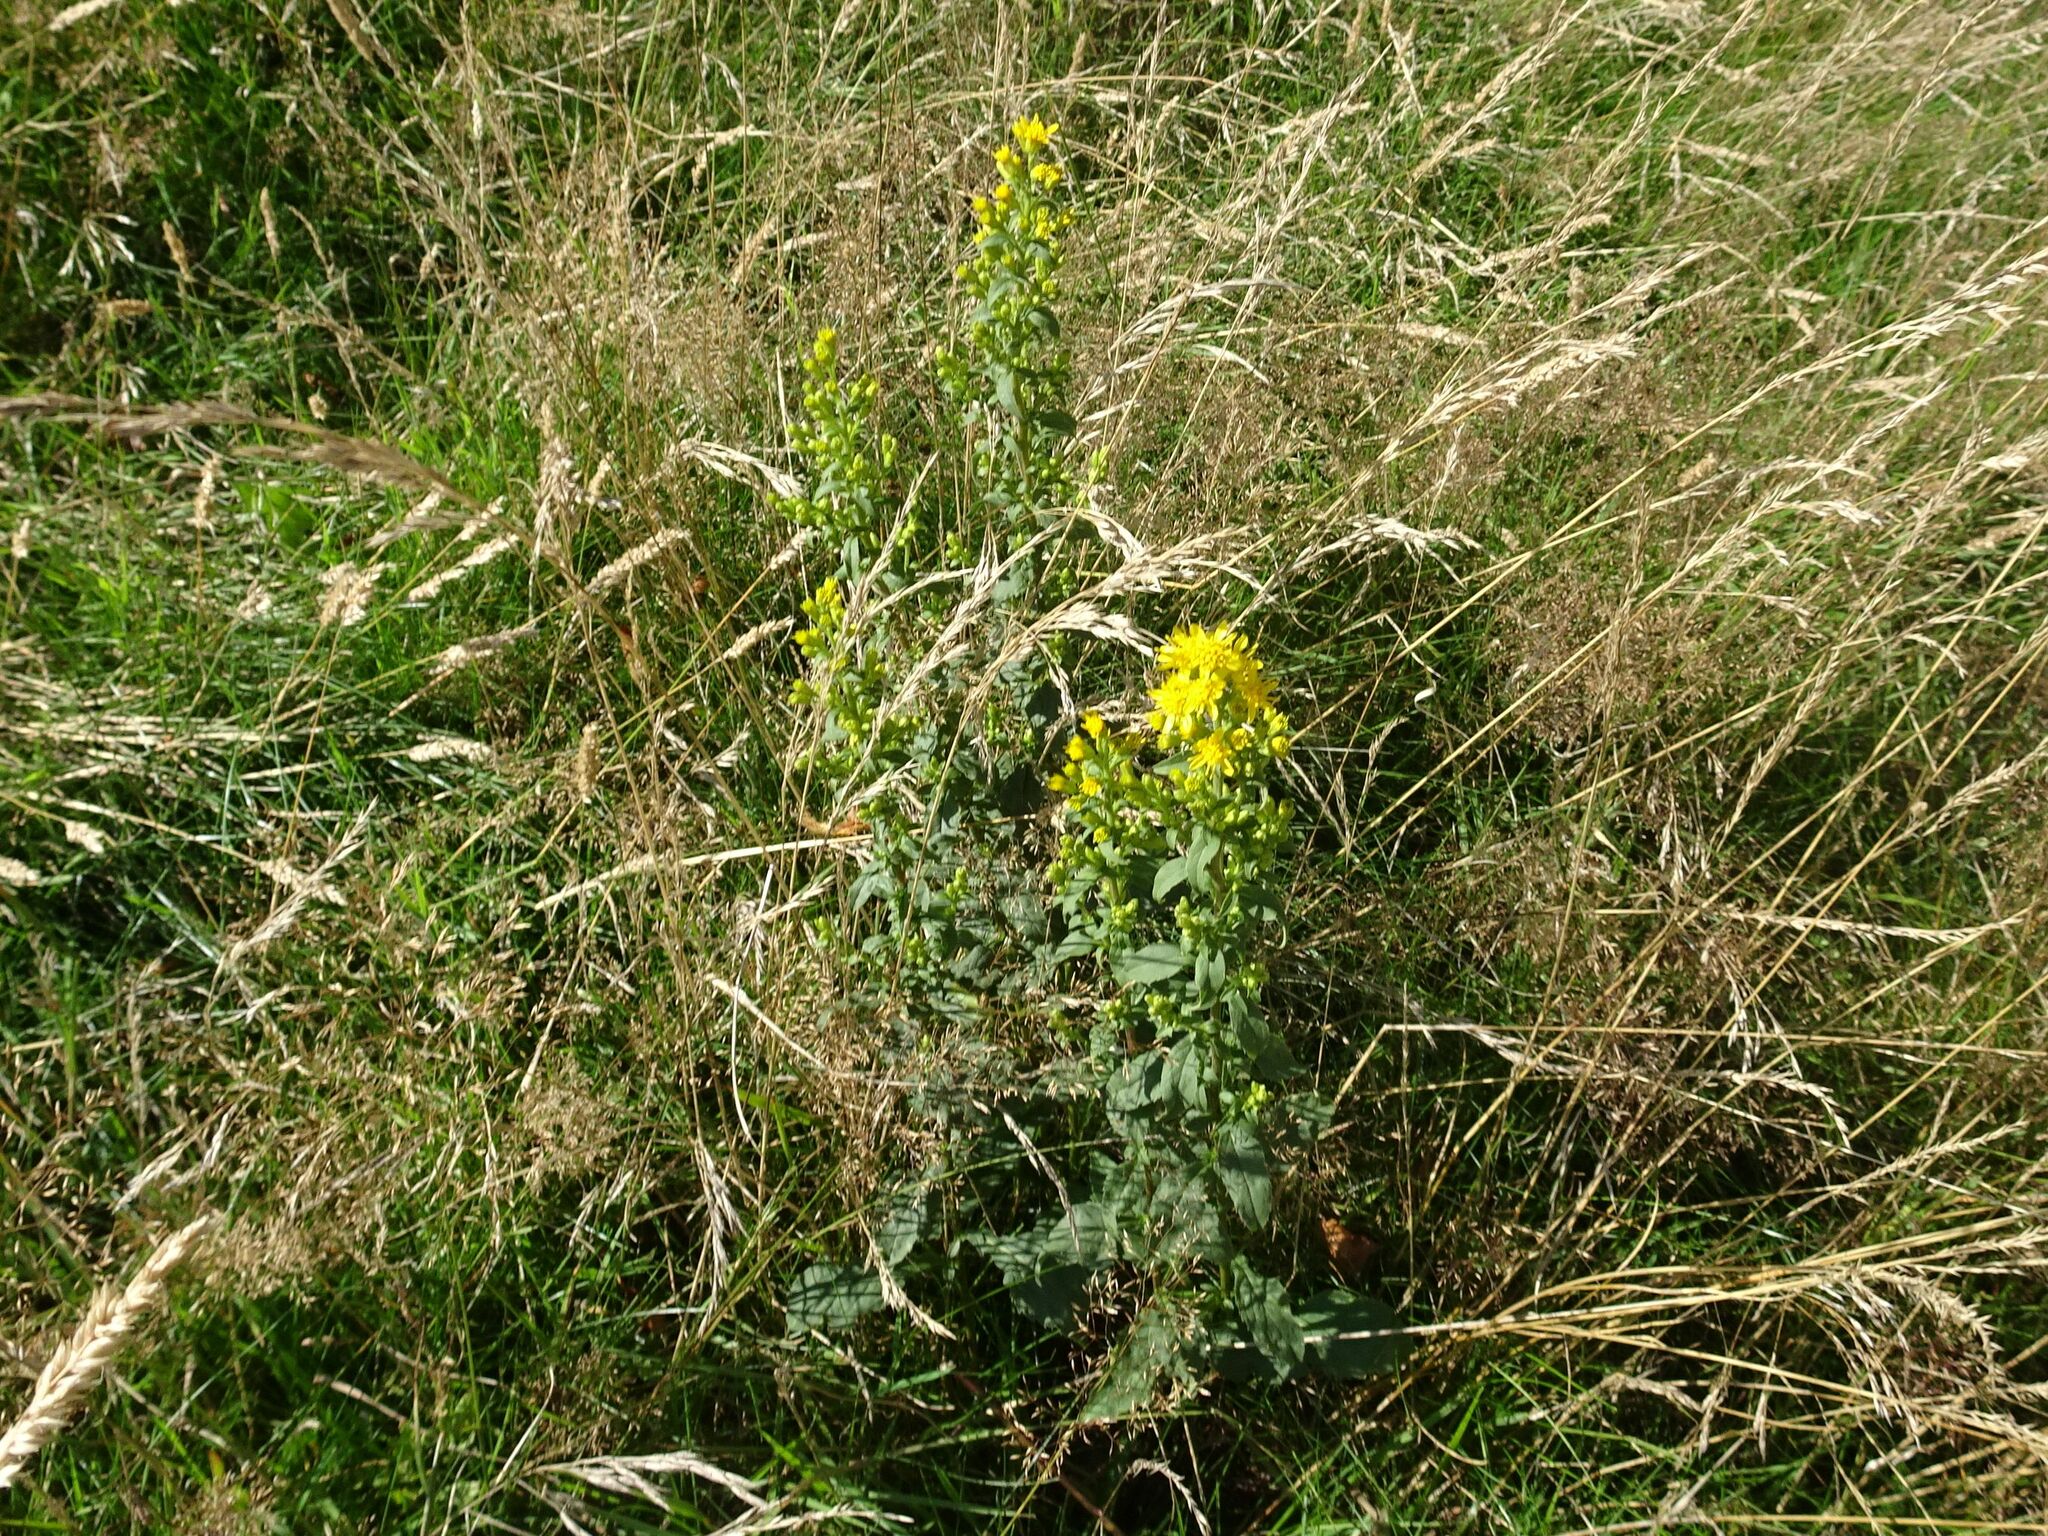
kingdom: Plantae
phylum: Tracheophyta
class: Magnoliopsida
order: Asterales
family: Asteraceae
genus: Solidago
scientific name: Solidago virgaurea
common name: Goldenrod
